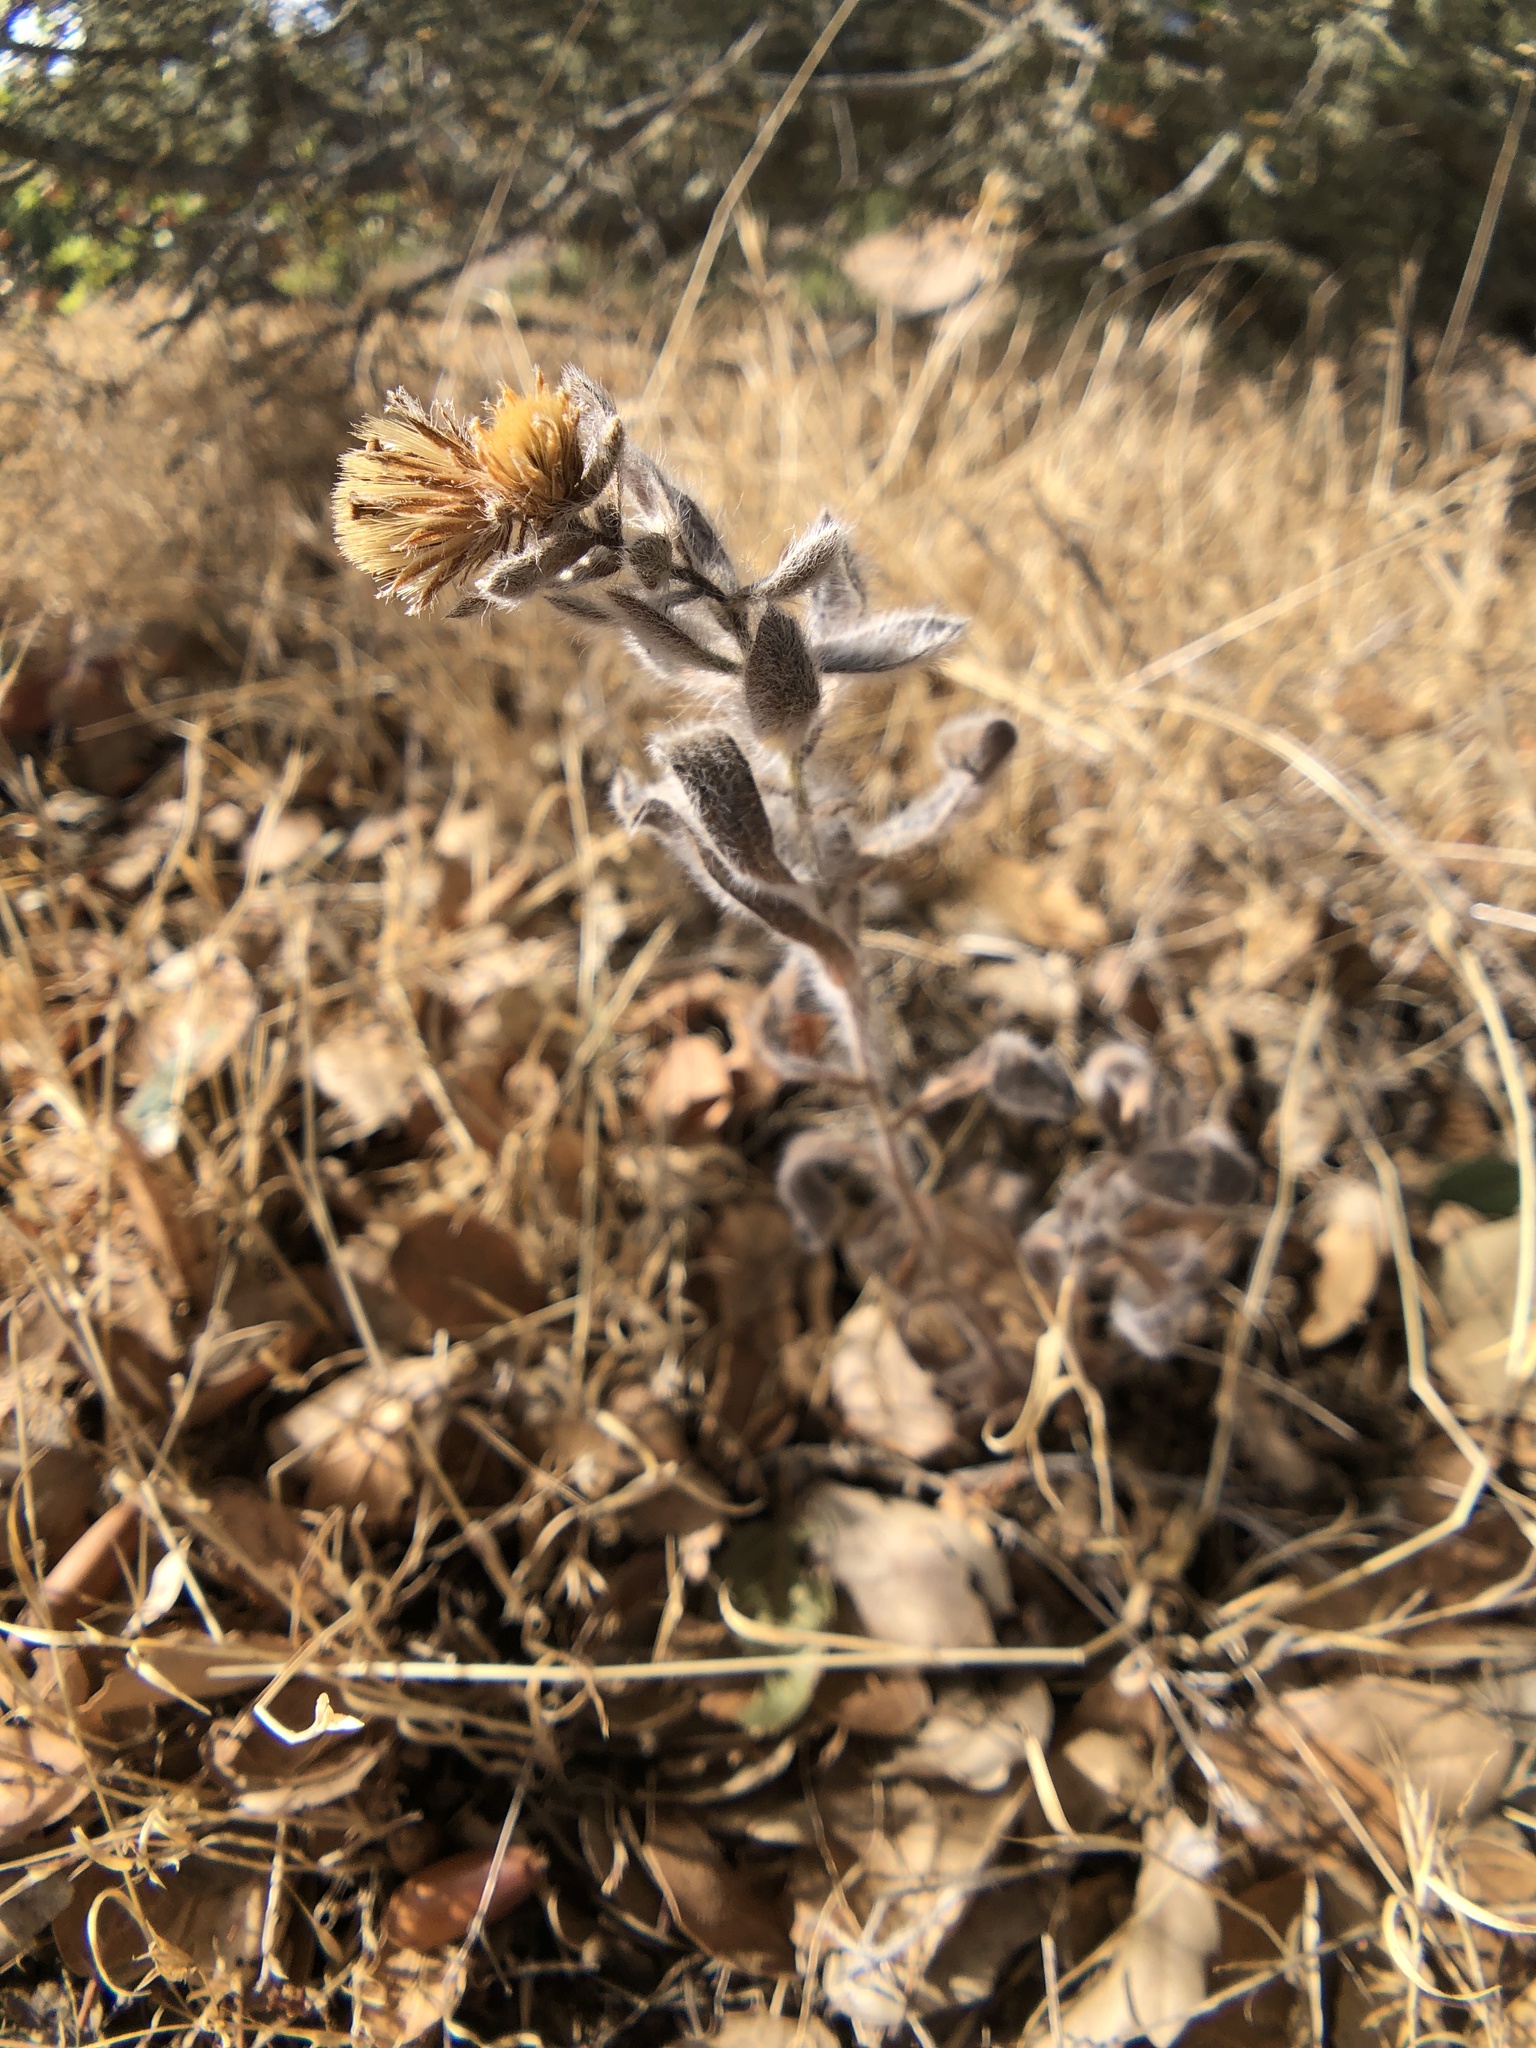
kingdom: Plantae
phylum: Tracheophyta
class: Magnoliopsida
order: Asterales
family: Asteraceae
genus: Heterotheca
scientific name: Heterotheca villosissima
